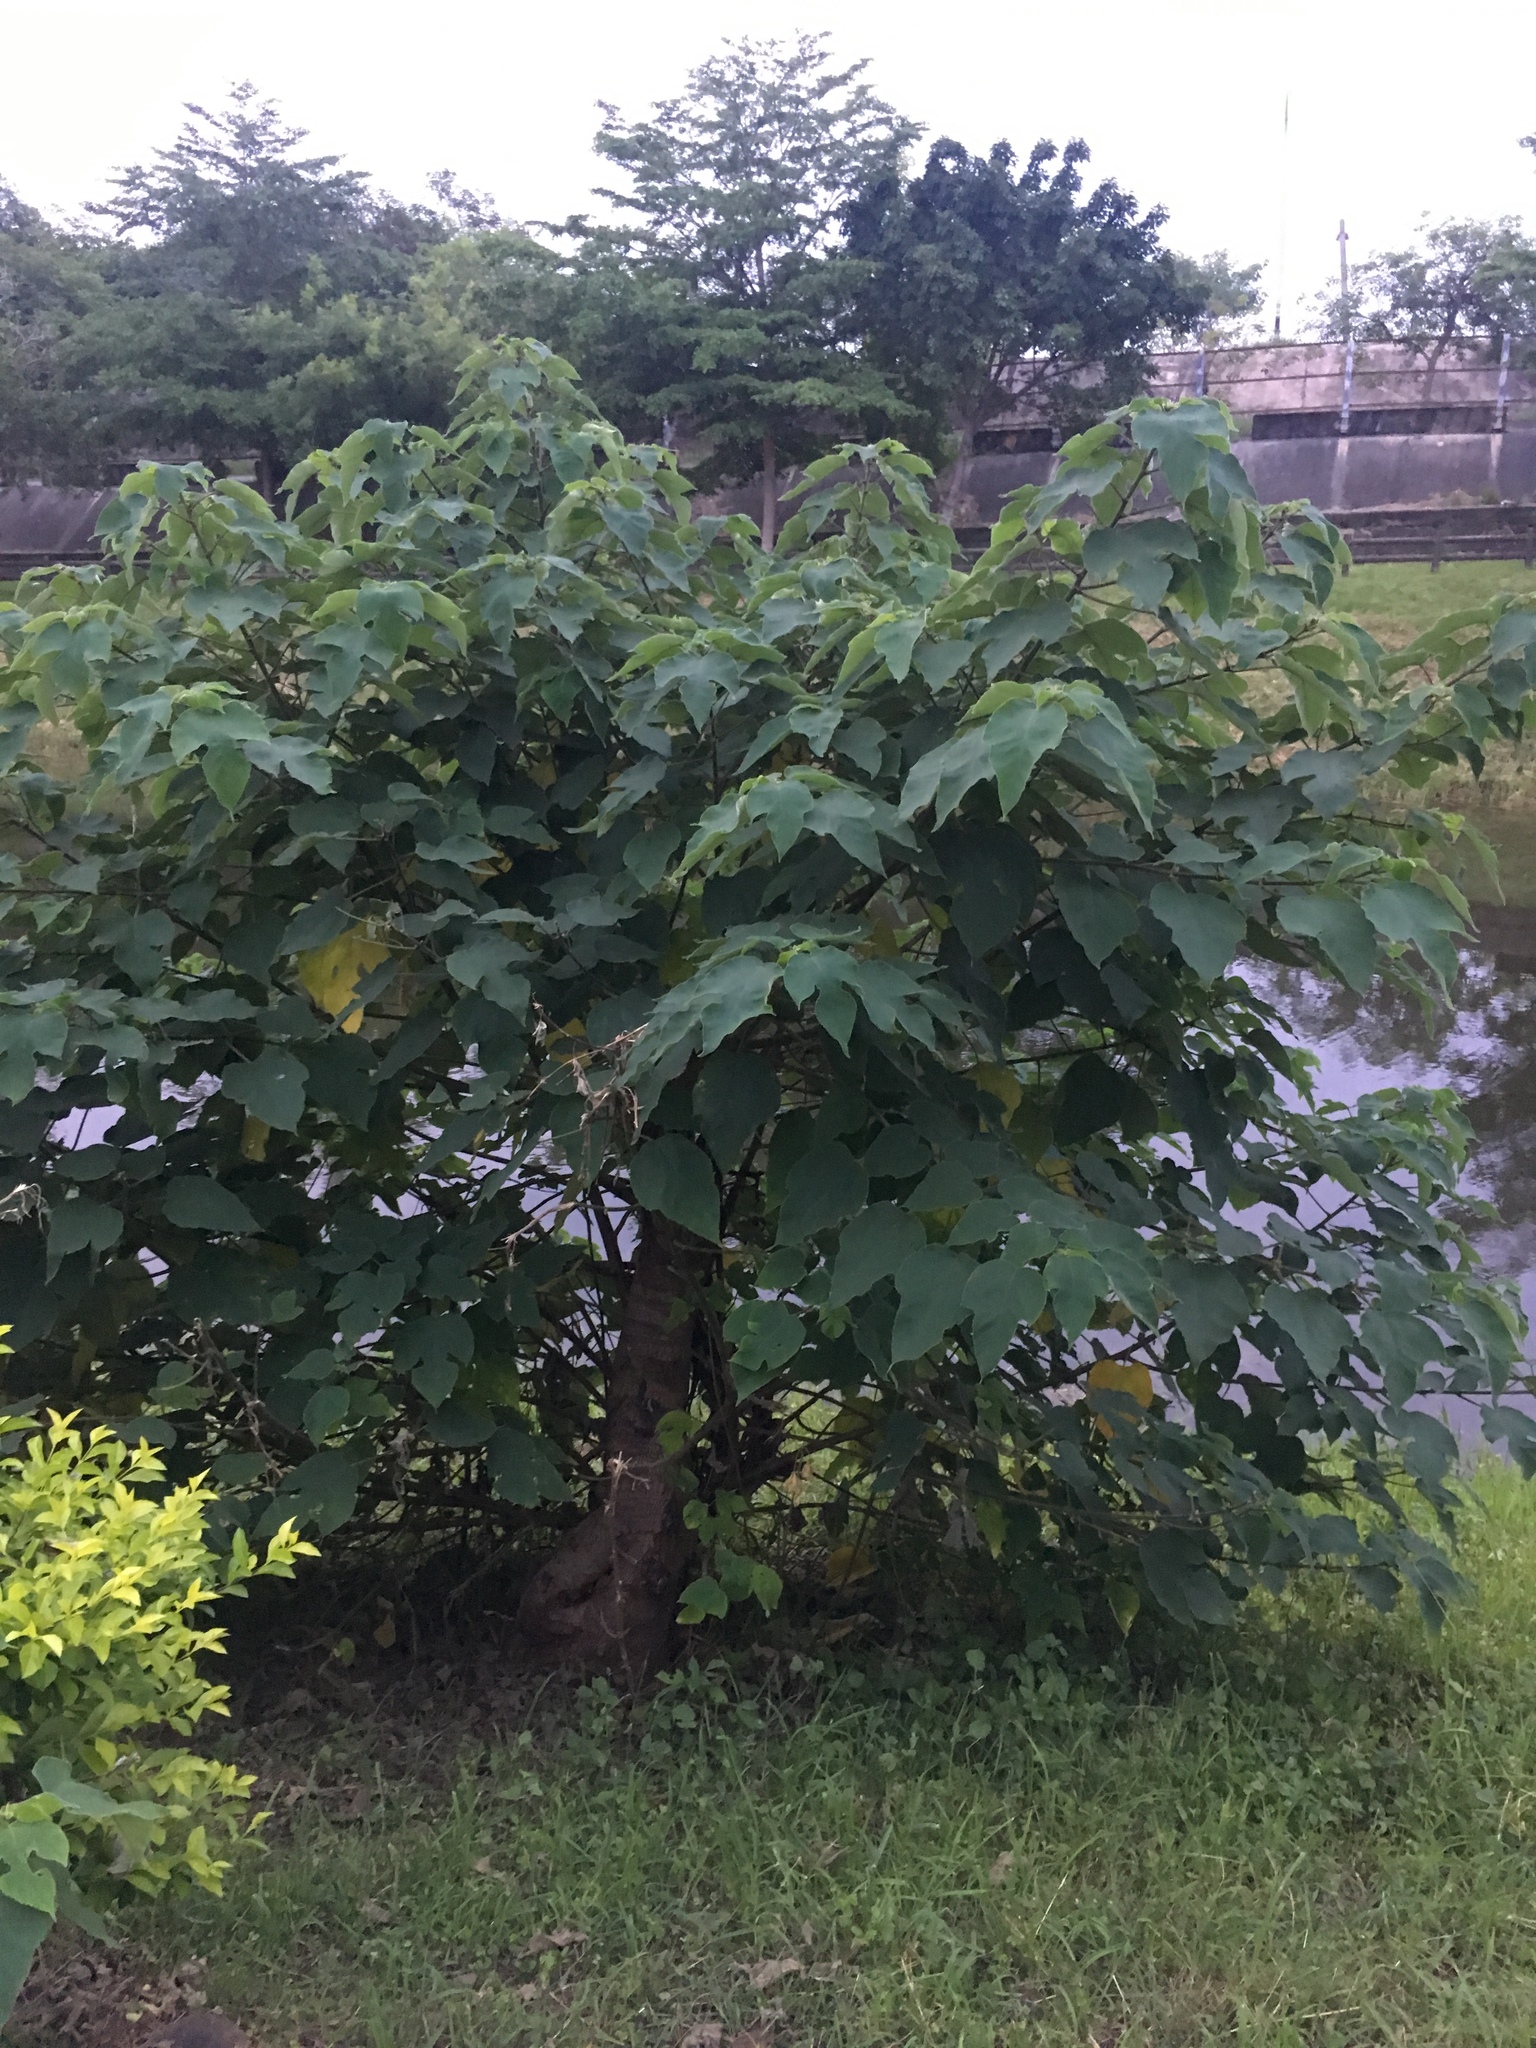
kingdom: Plantae
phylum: Tracheophyta
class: Magnoliopsida
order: Rosales
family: Moraceae
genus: Broussonetia
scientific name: Broussonetia papyrifera
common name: Paper mulberry
